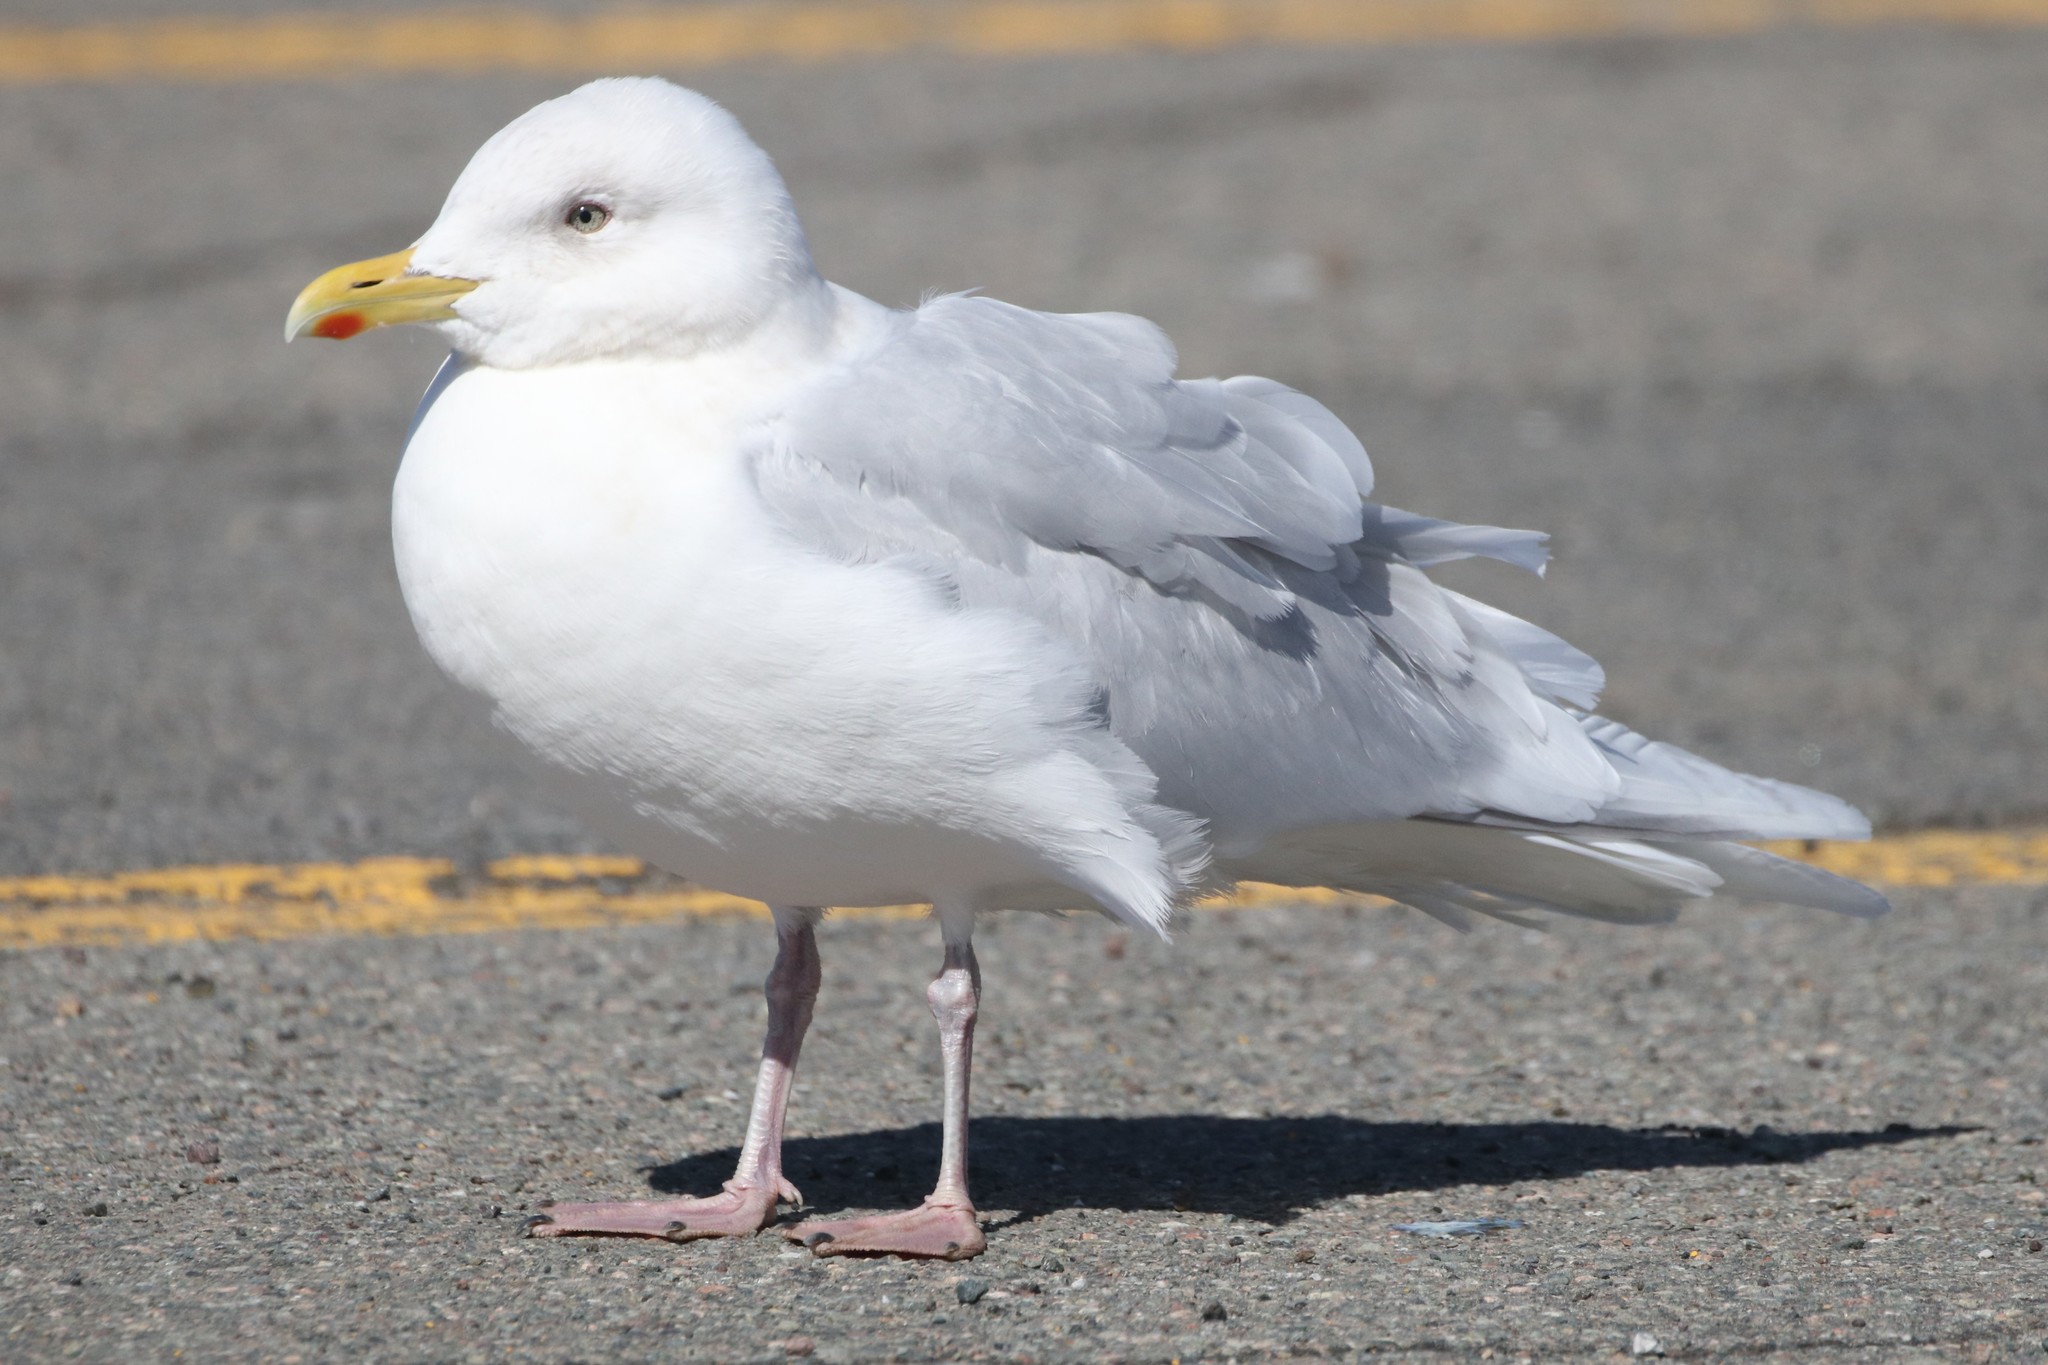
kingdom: Animalia
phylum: Chordata
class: Aves
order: Charadriiformes
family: Laridae
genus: Larus
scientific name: Larus glaucoides
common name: Iceland gull
